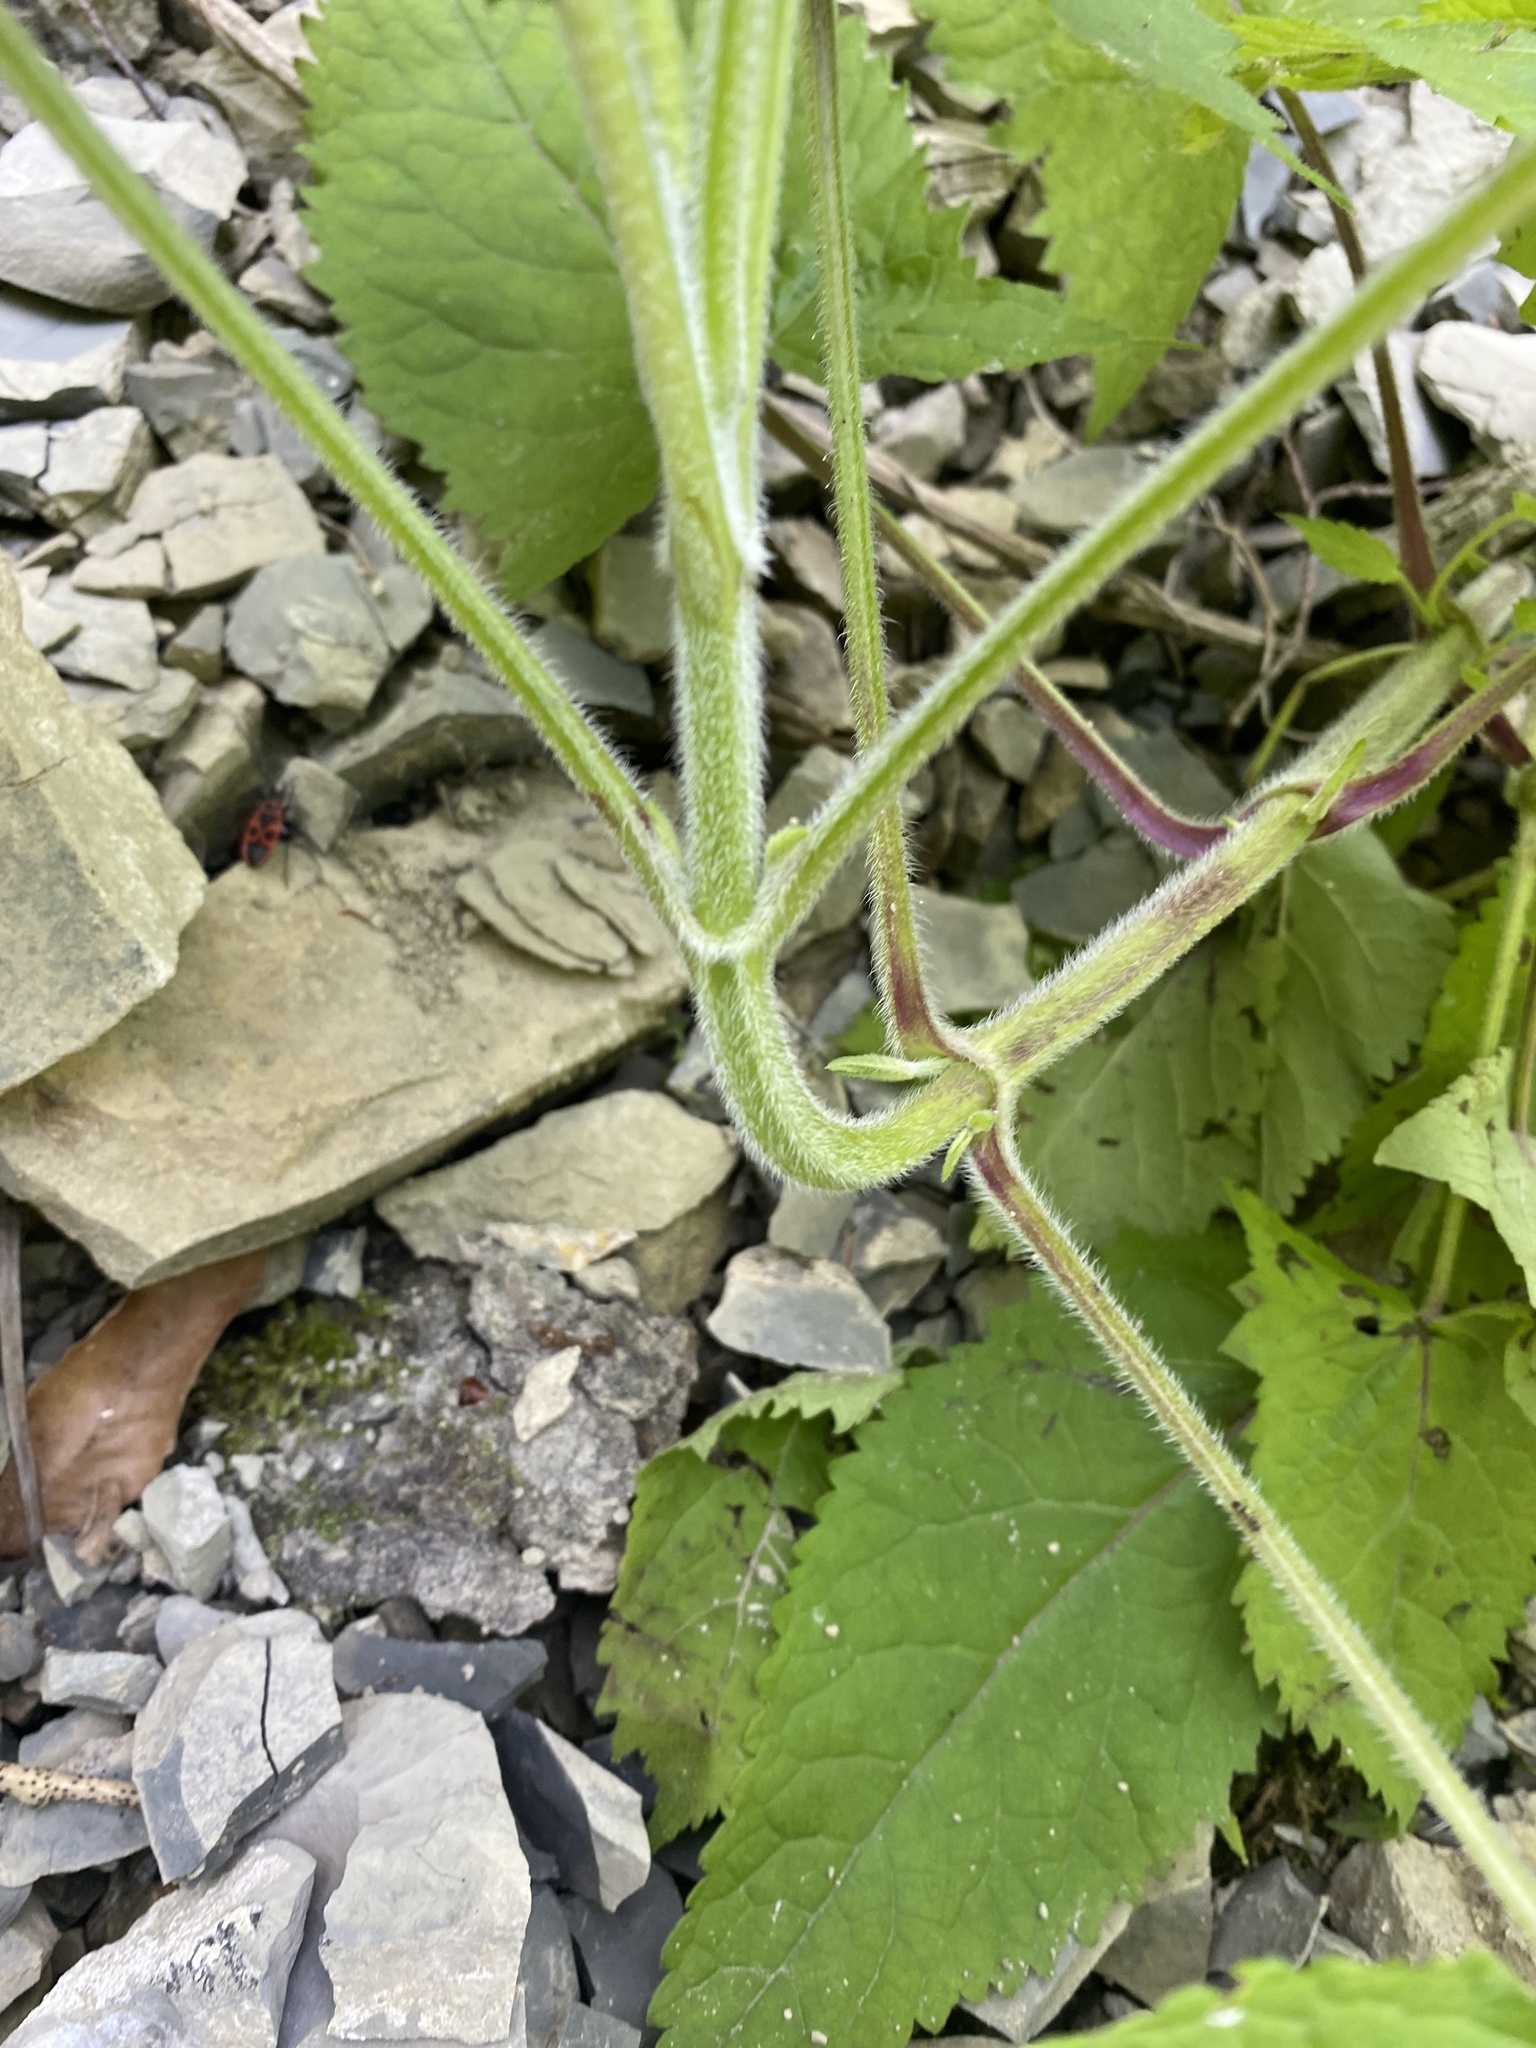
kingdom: Plantae
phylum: Tracheophyta
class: Magnoliopsida
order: Lamiales
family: Lamiaceae
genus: Salvia
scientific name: Salvia glutinosa
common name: Sticky clary
